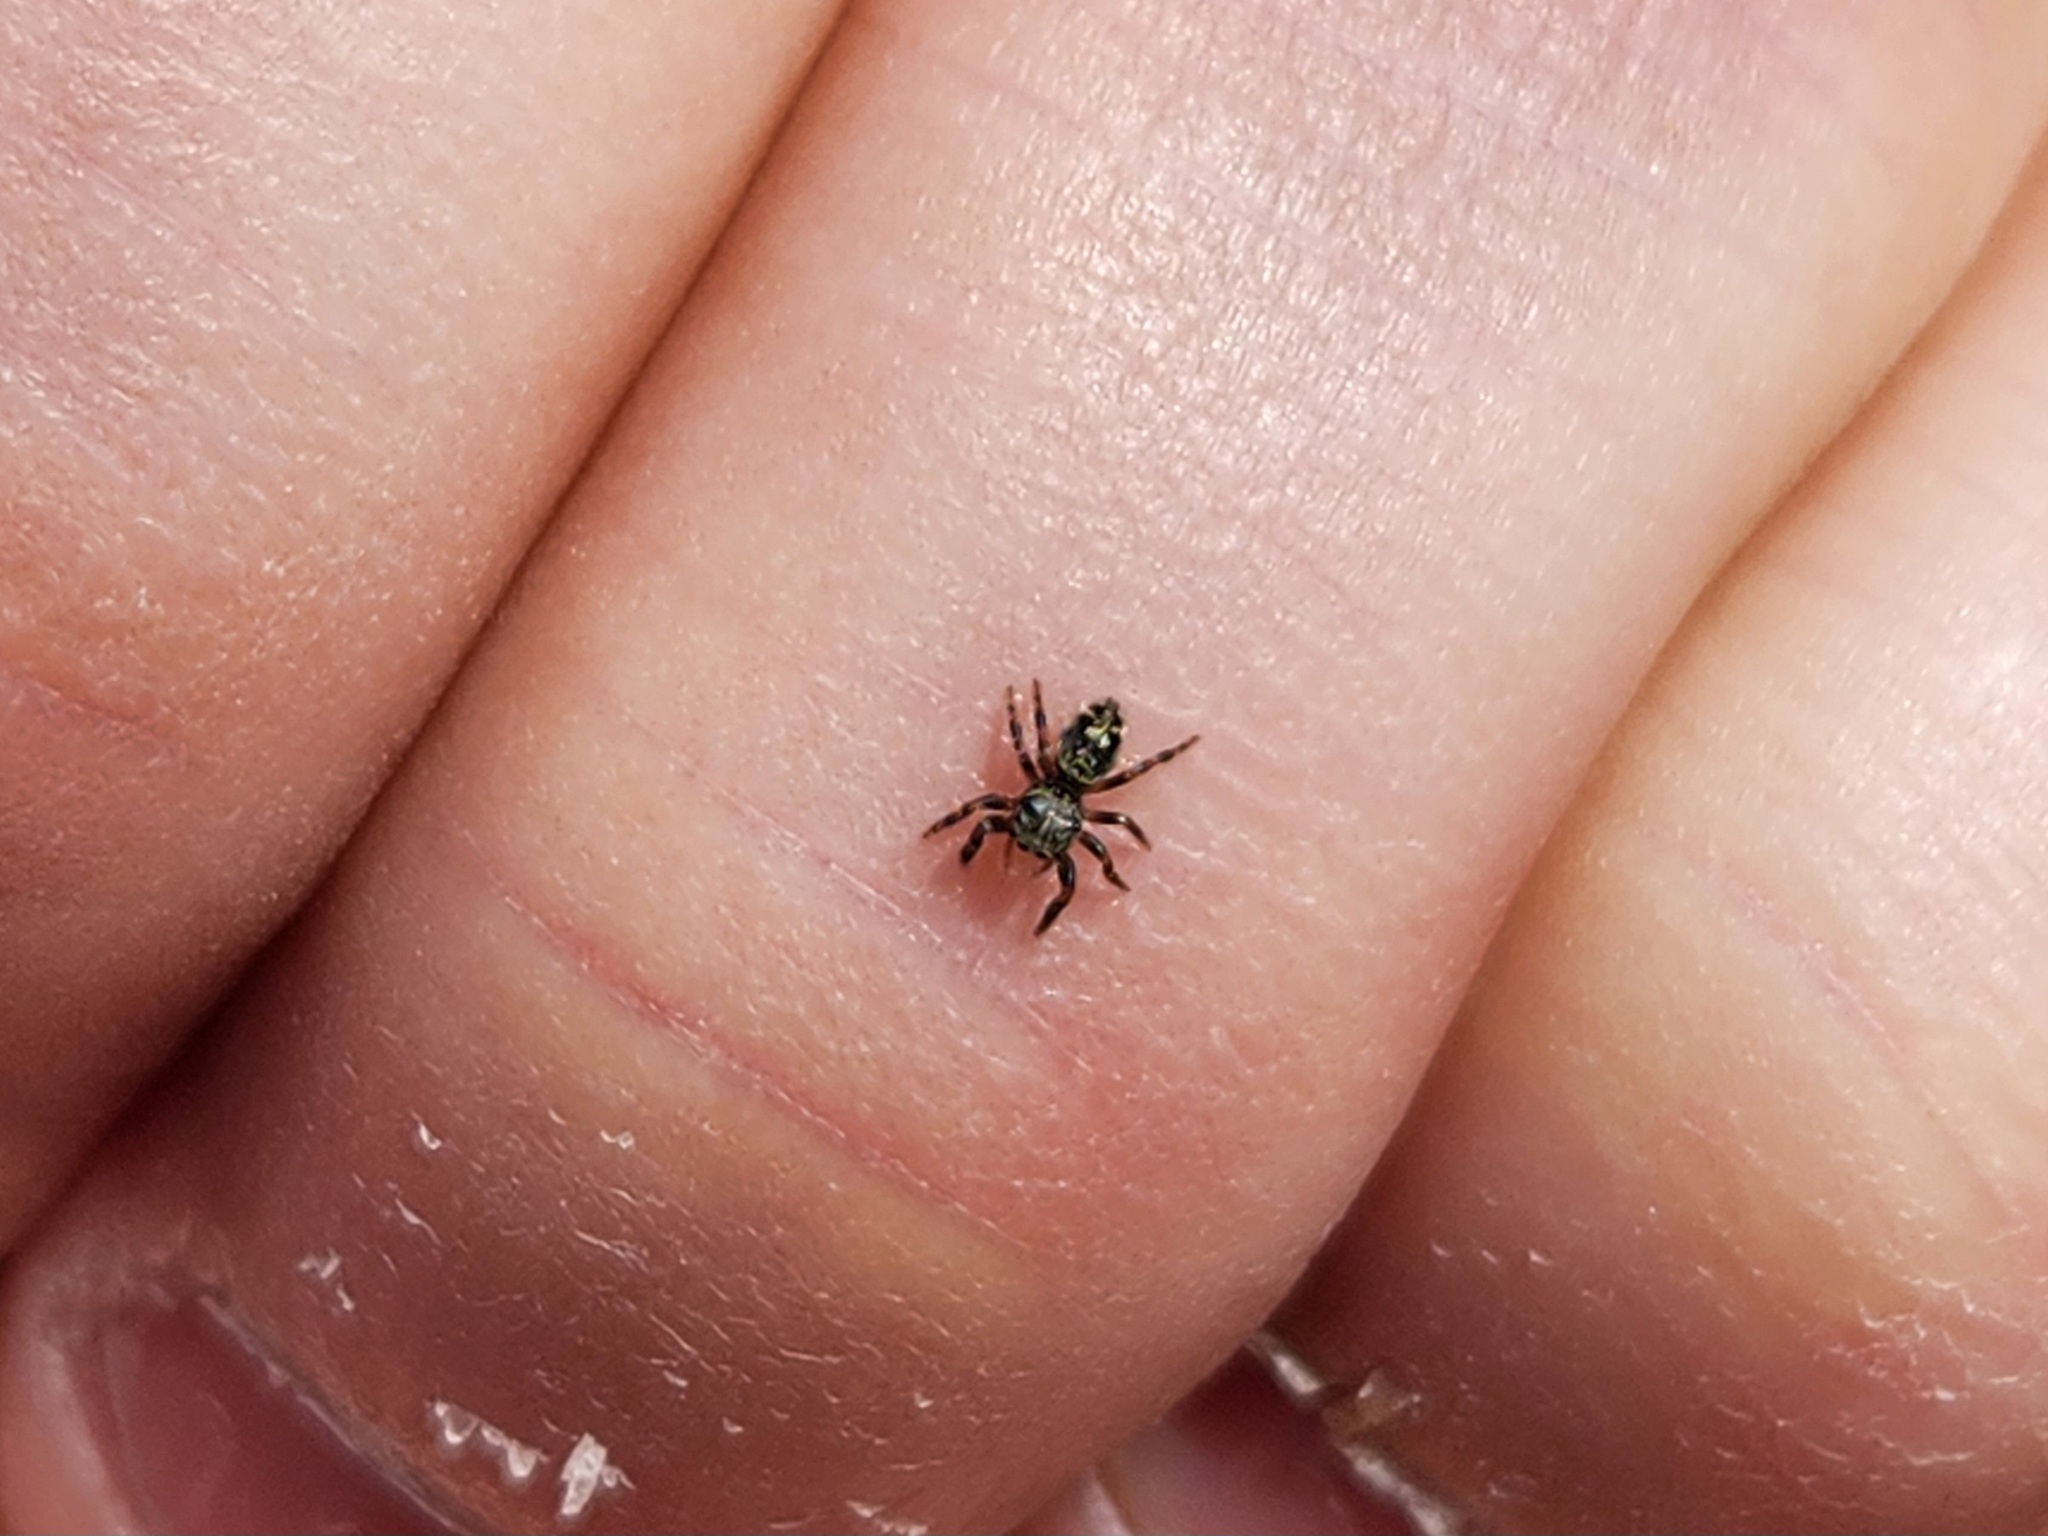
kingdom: Animalia
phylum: Arthropoda
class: Arachnida
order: Araneae
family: Salticidae
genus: Phidippus
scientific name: Phidippus putnami
